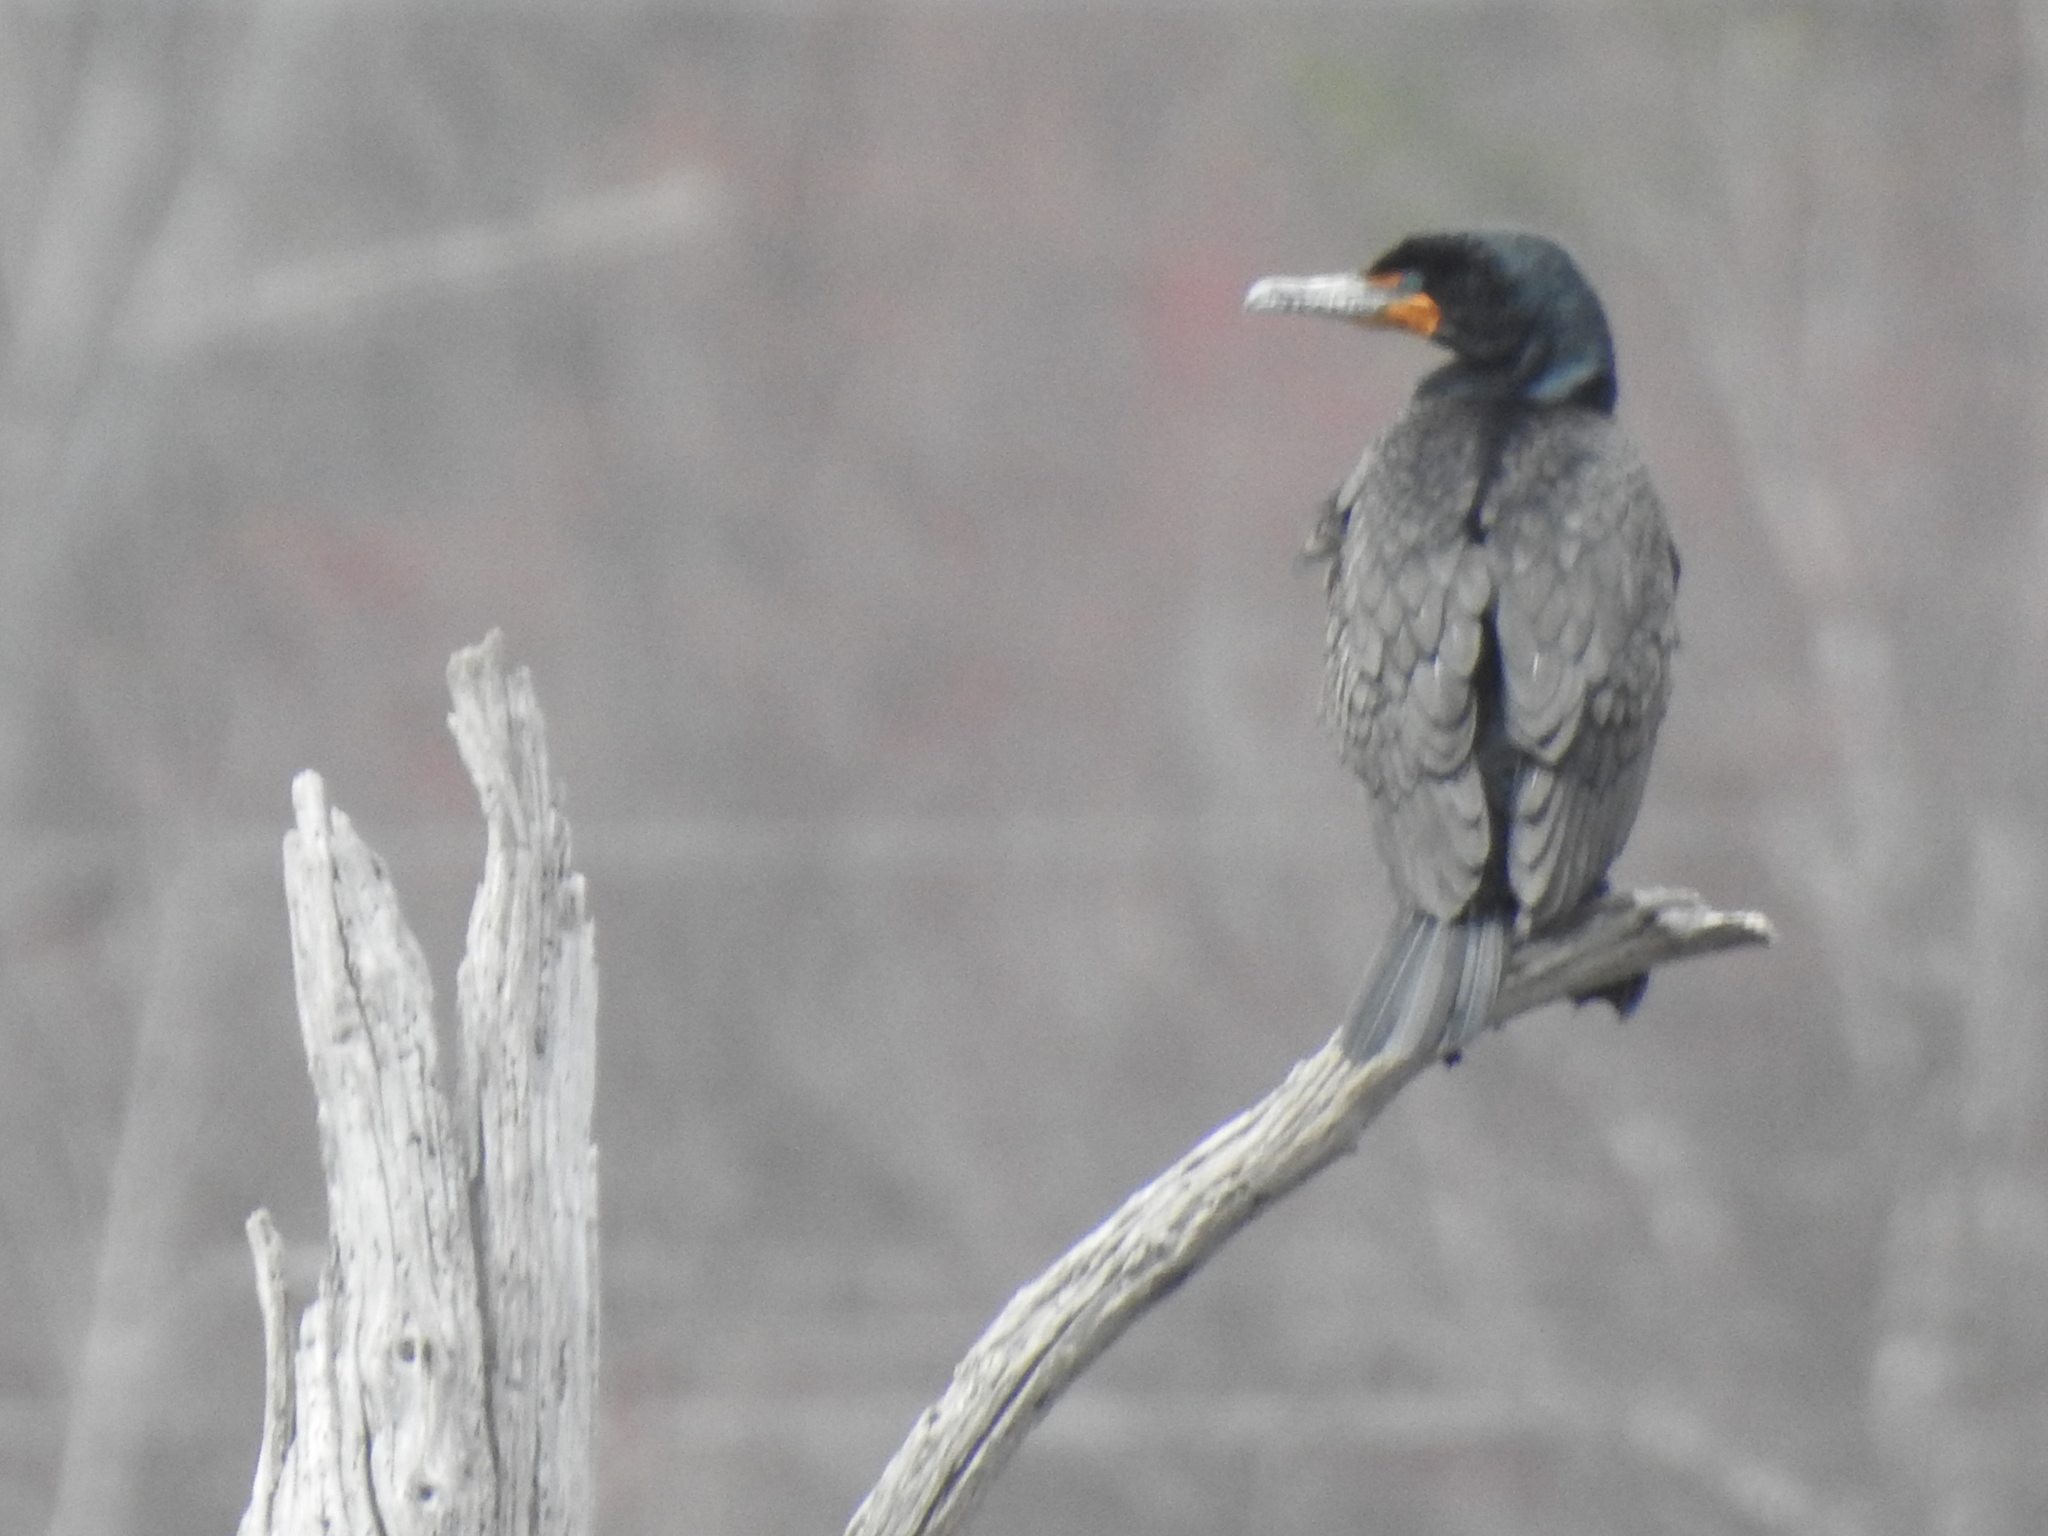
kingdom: Animalia
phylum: Chordata
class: Aves
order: Suliformes
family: Phalacrocoracidae
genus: Phalacrocorax
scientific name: Phalacrocorax auritus
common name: Double-crested cormorant
